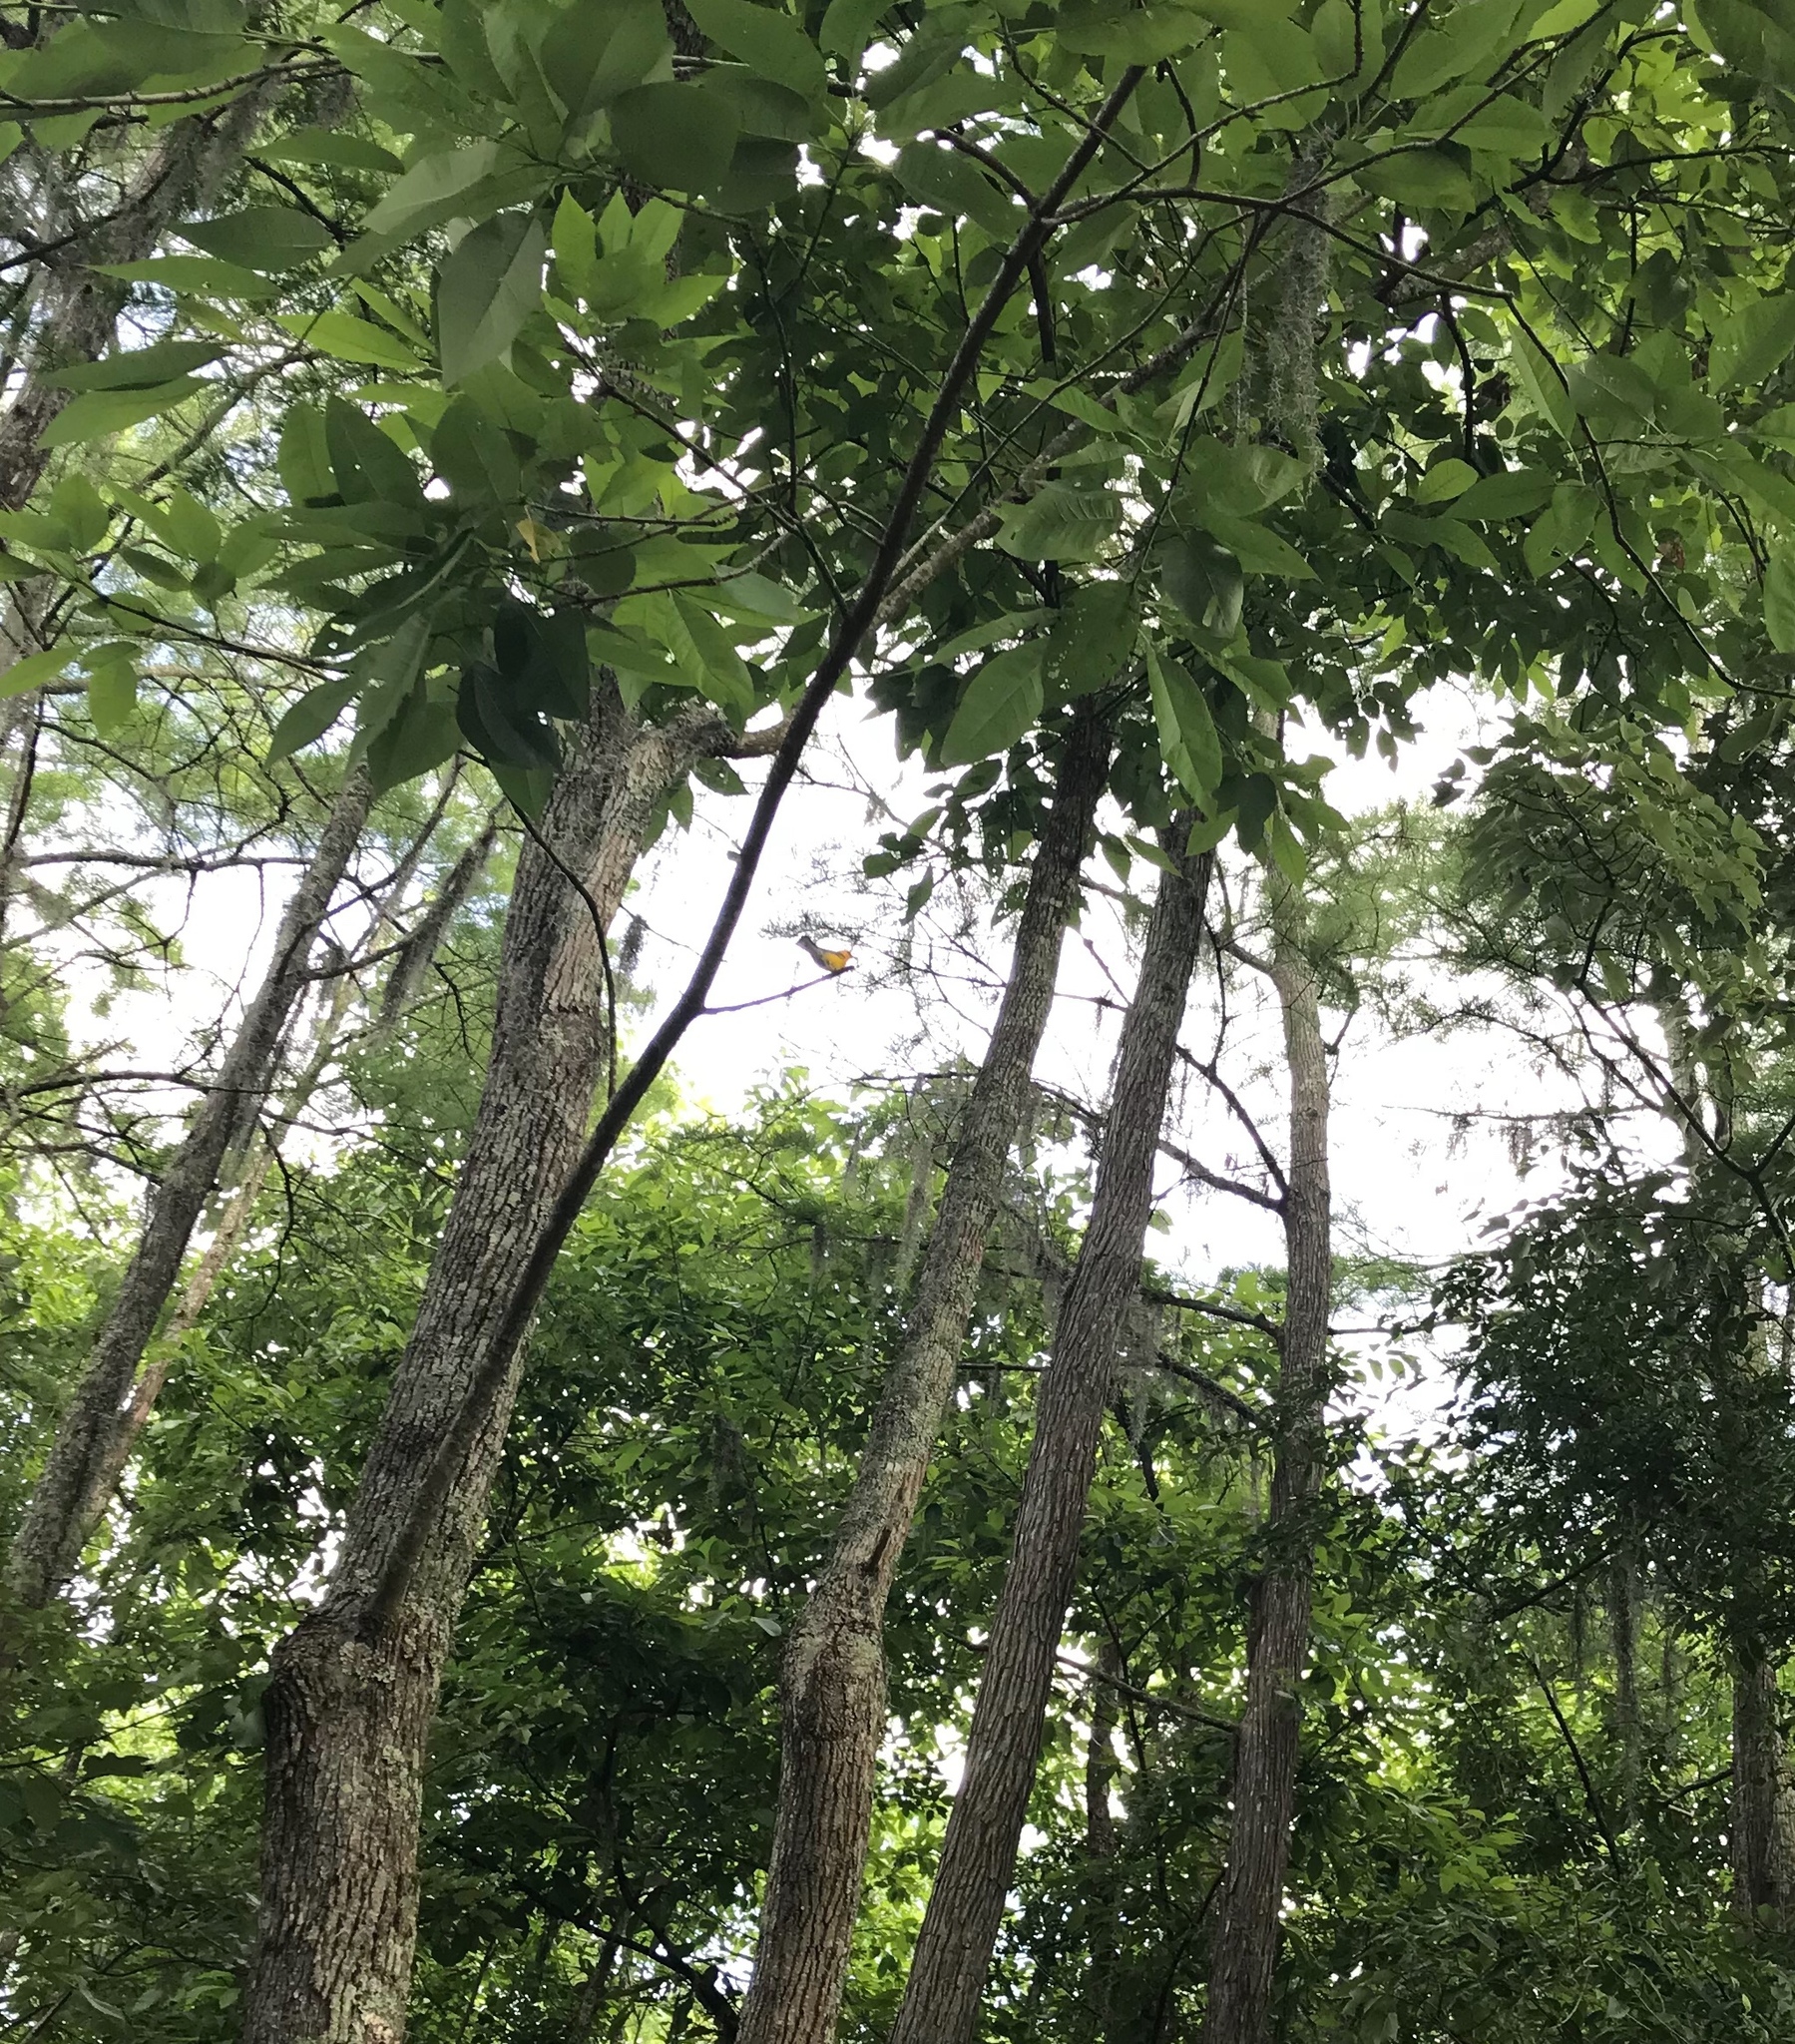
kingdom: Animalia
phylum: Chordata
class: Aves
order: Passeriformes
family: Parulidae
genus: Protonotaria
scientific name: Protonotaria citrea
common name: Prothonotary warbler
